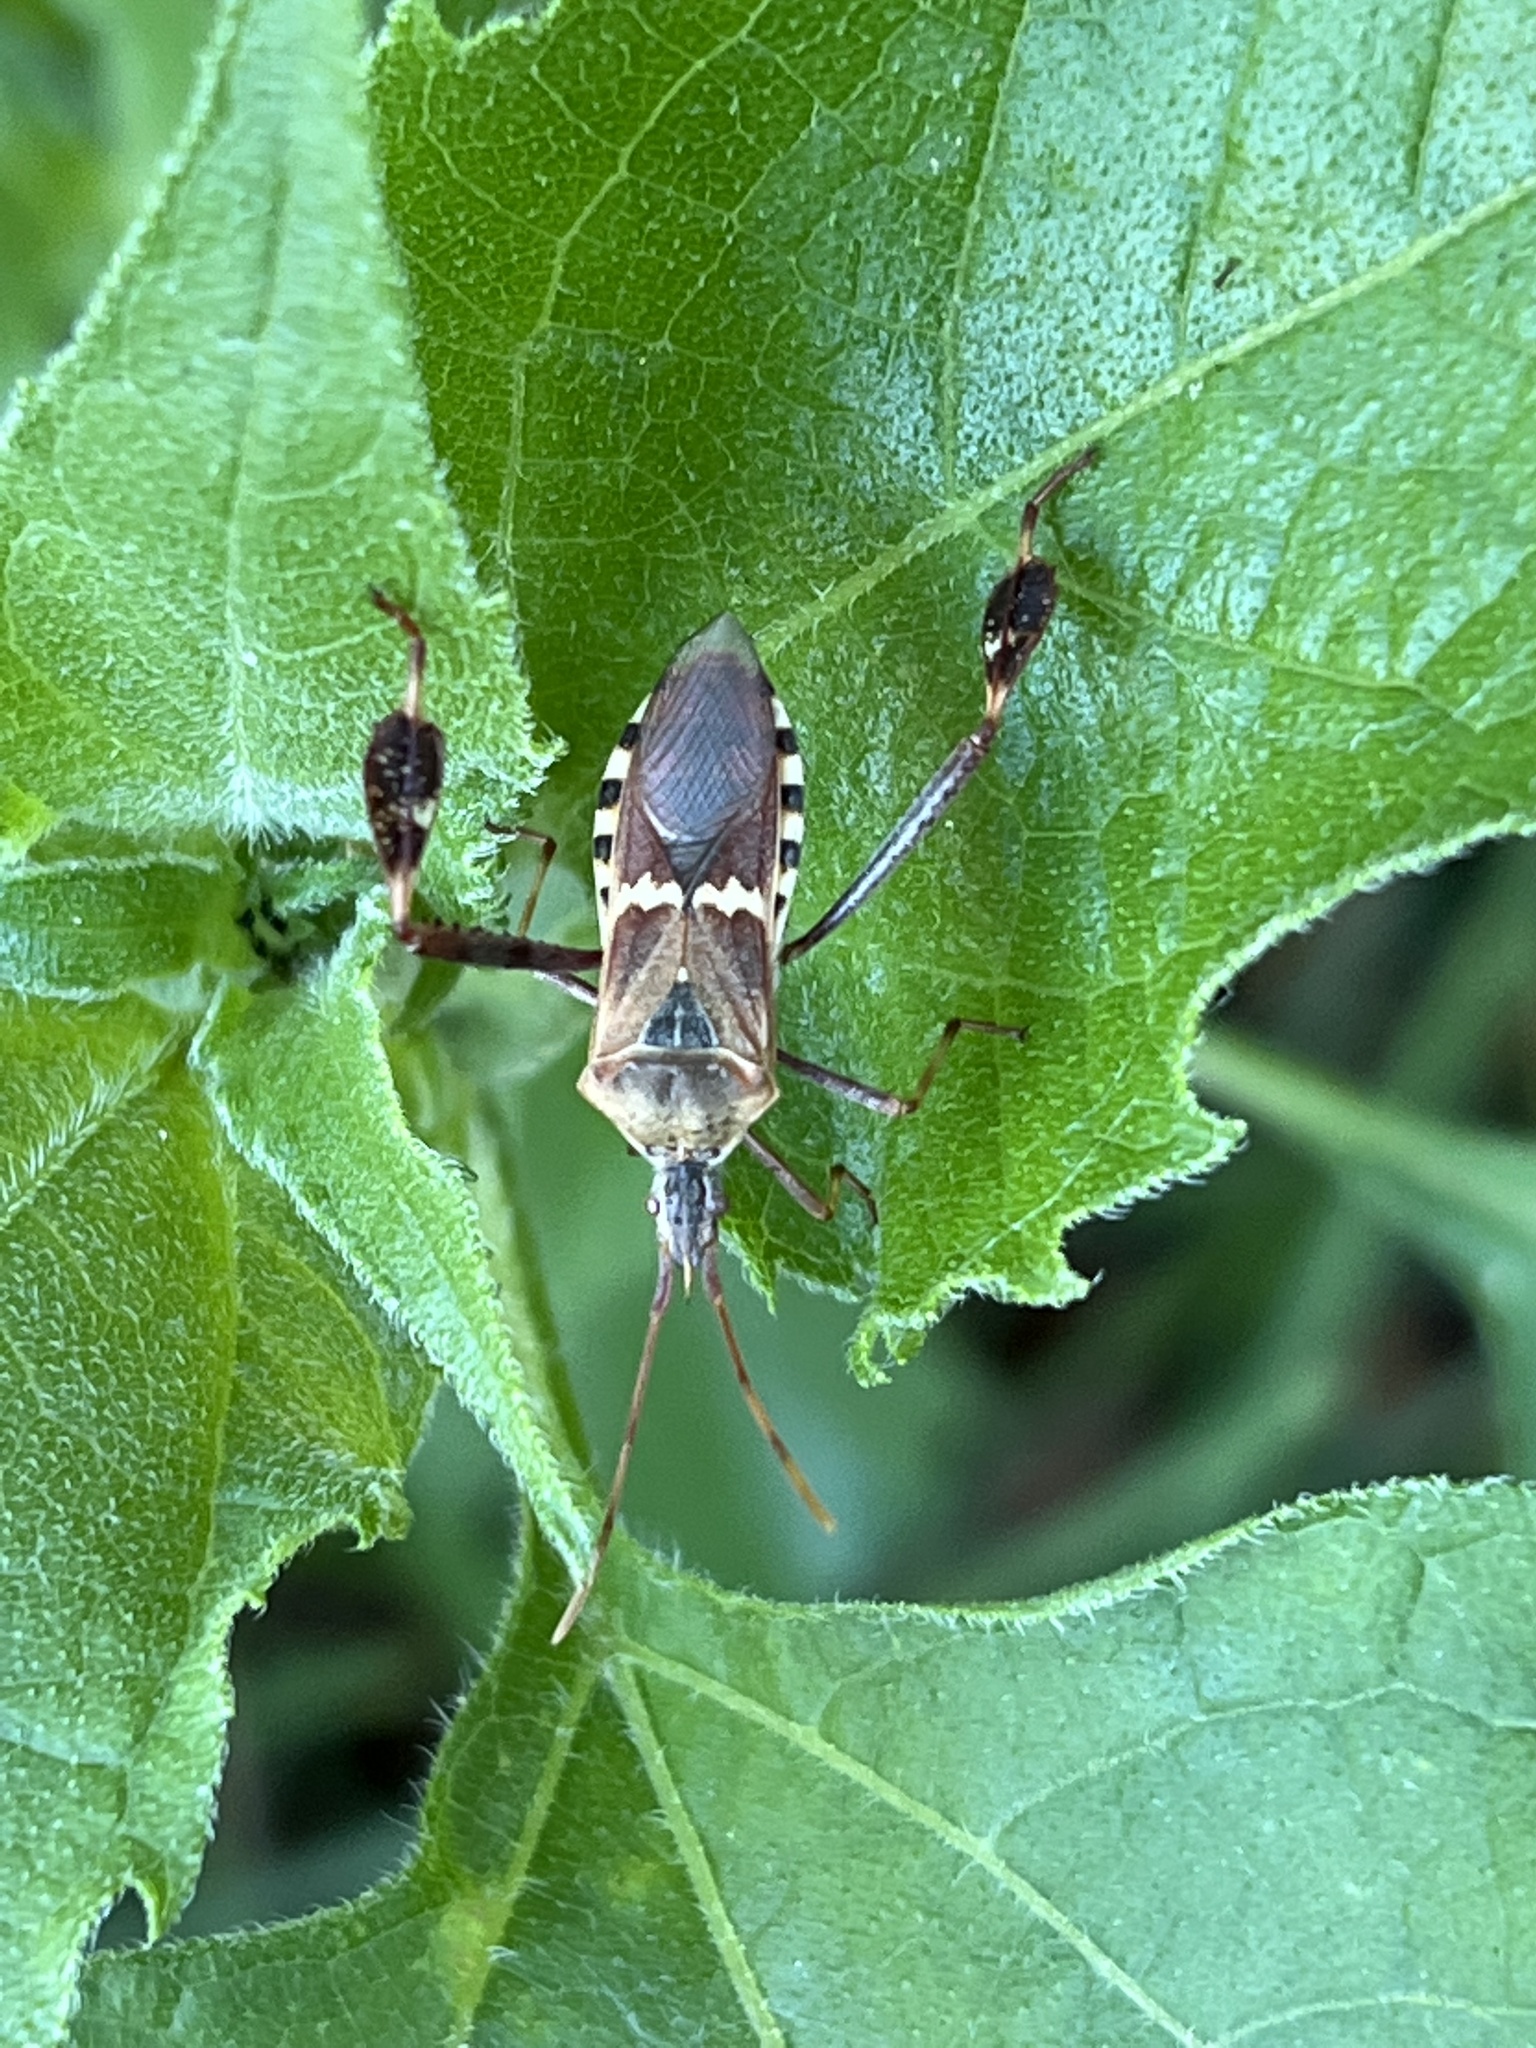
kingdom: Animalia
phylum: Arthropoda
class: Insecta
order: Hemiptera
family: Coreidae
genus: Leptoglossus
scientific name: Leptoglossus clypealis
